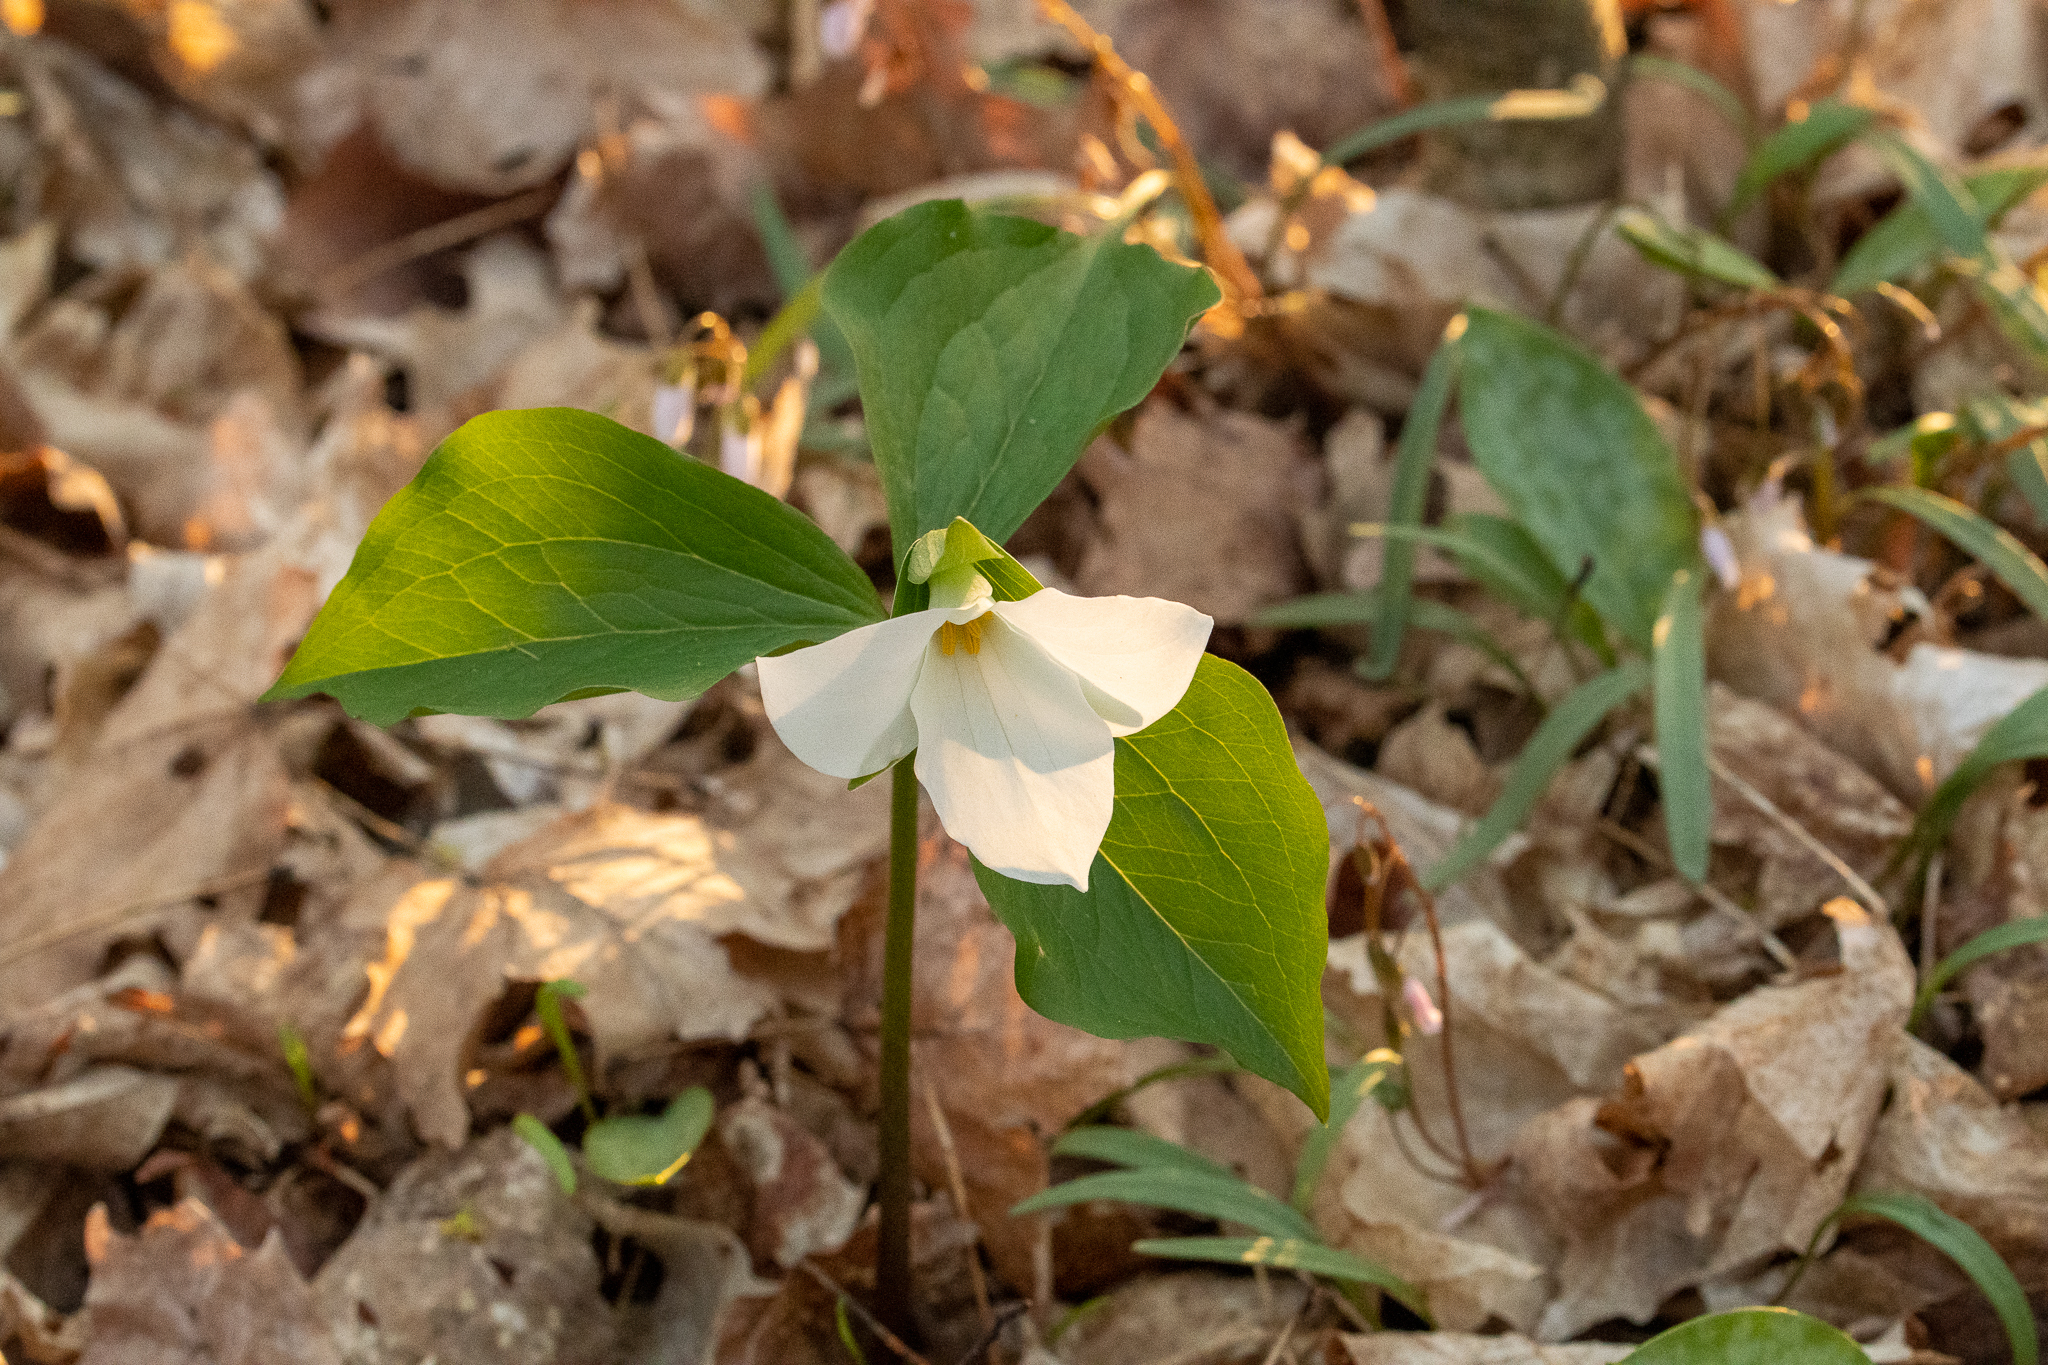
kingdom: Plantae
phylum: Tracheophyta
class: Liliopsida
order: Liliales
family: Melanthiaceae
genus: Trillium
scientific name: Trillium grandiflorum
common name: Great white trillium
